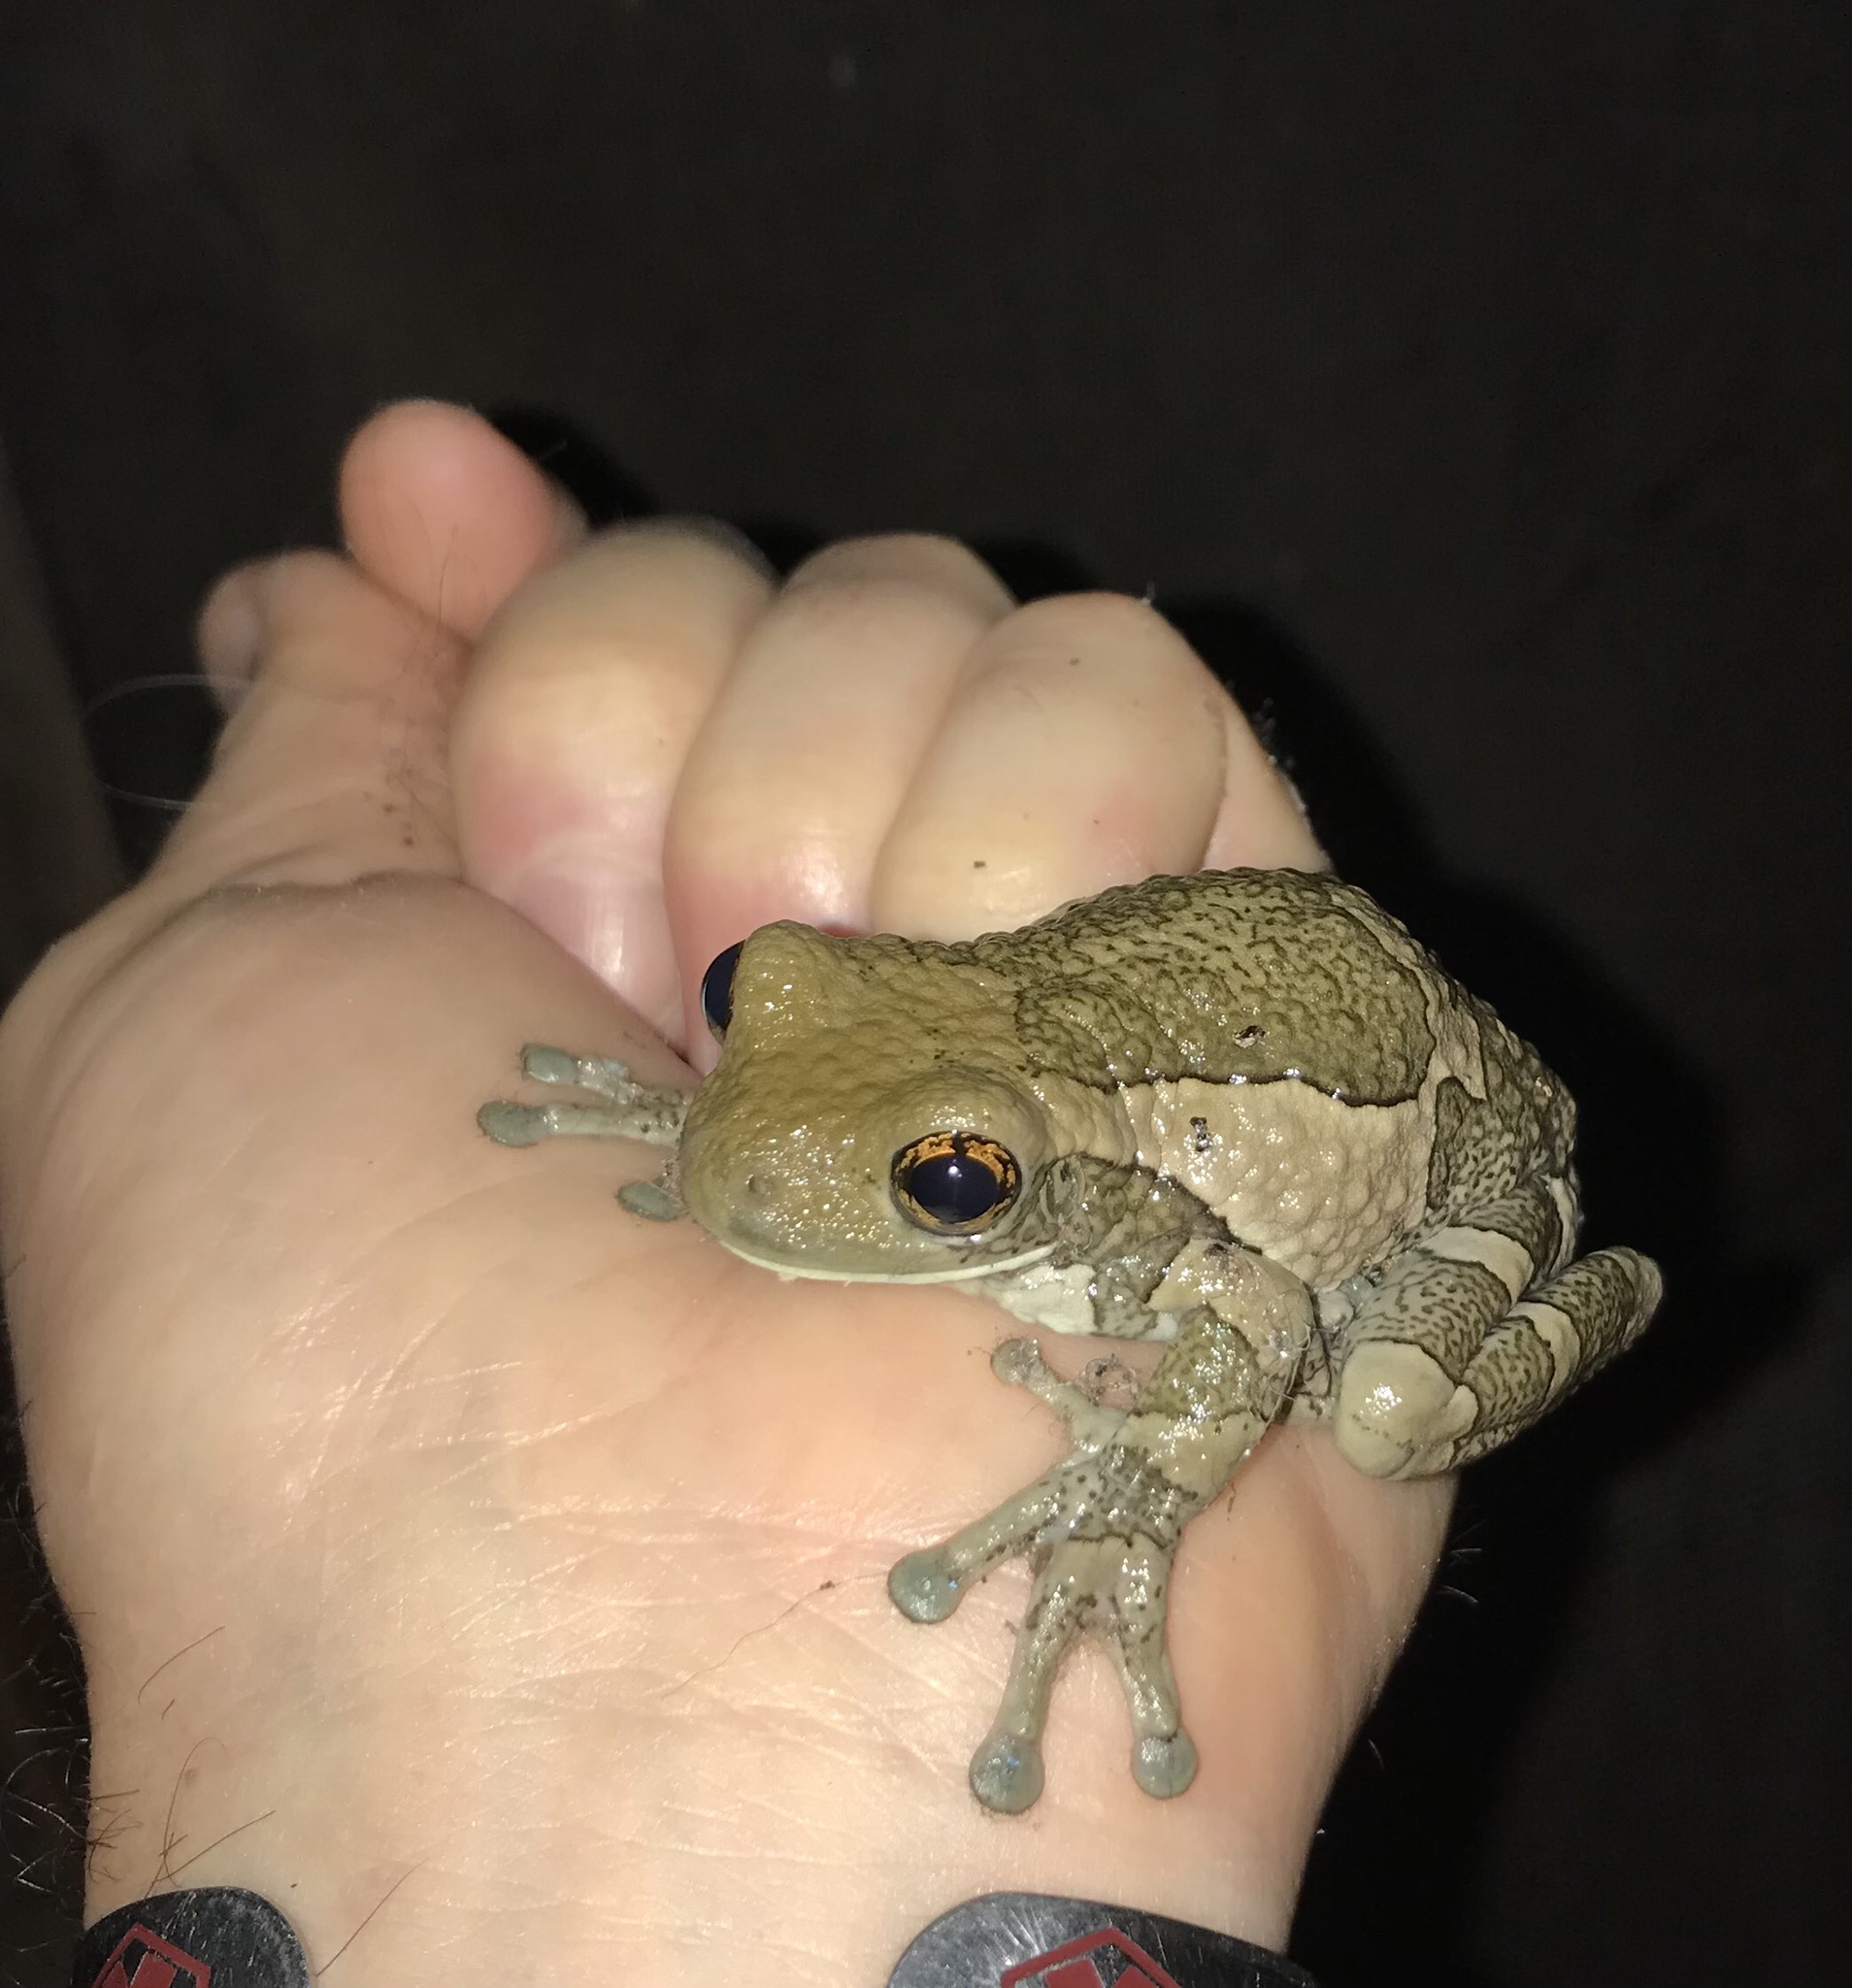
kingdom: Animalia
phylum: Chordata
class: Amphibia
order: Anura
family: Hylidae
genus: Trachycephalus
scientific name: Trachycephalus vermiculatus
